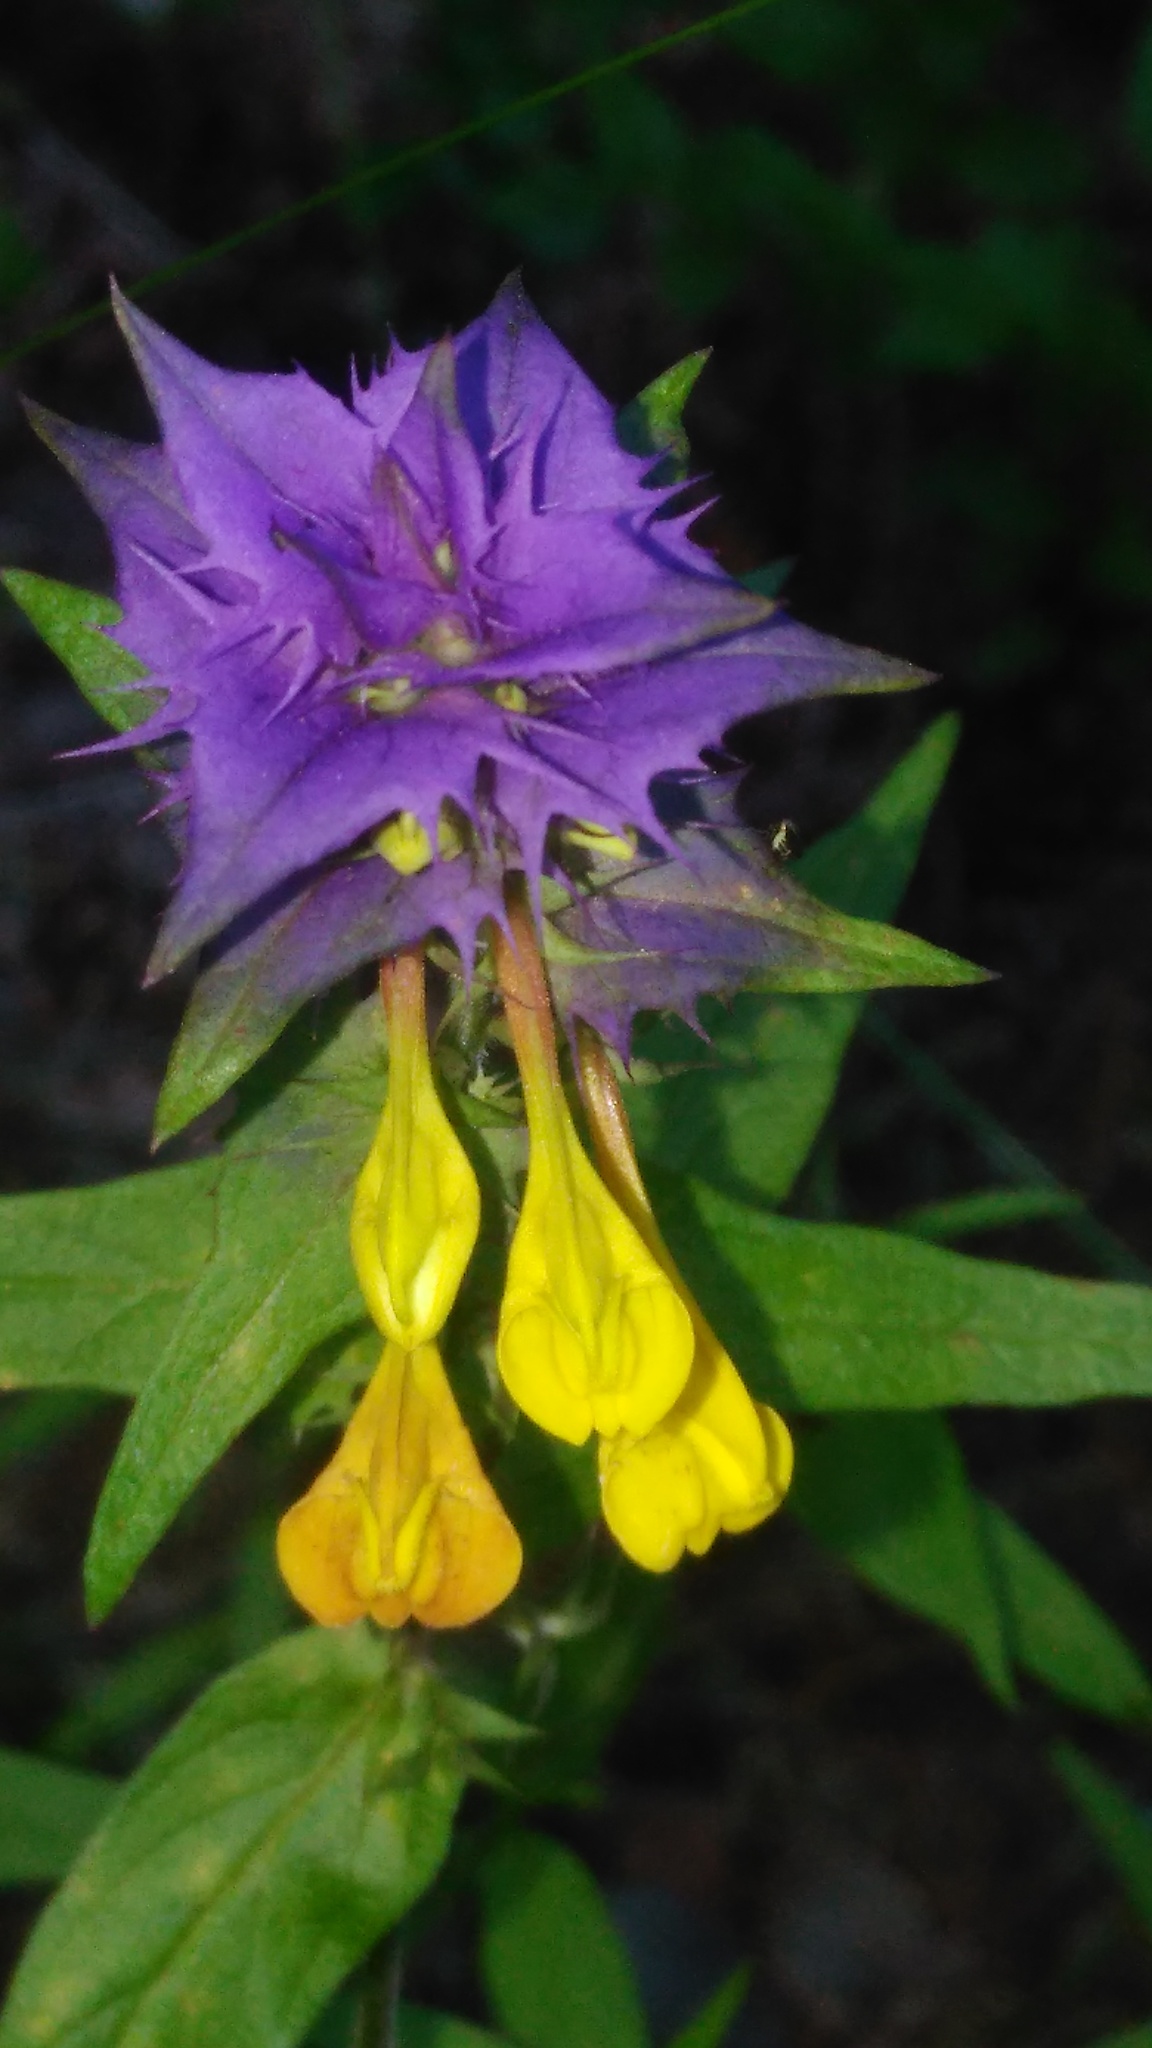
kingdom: Plantae
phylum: Tracheophyta
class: Magnoliopsida
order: Lamiales
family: Orobanchaceae
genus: Melampyrum
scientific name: Melampyrum nemorosum
